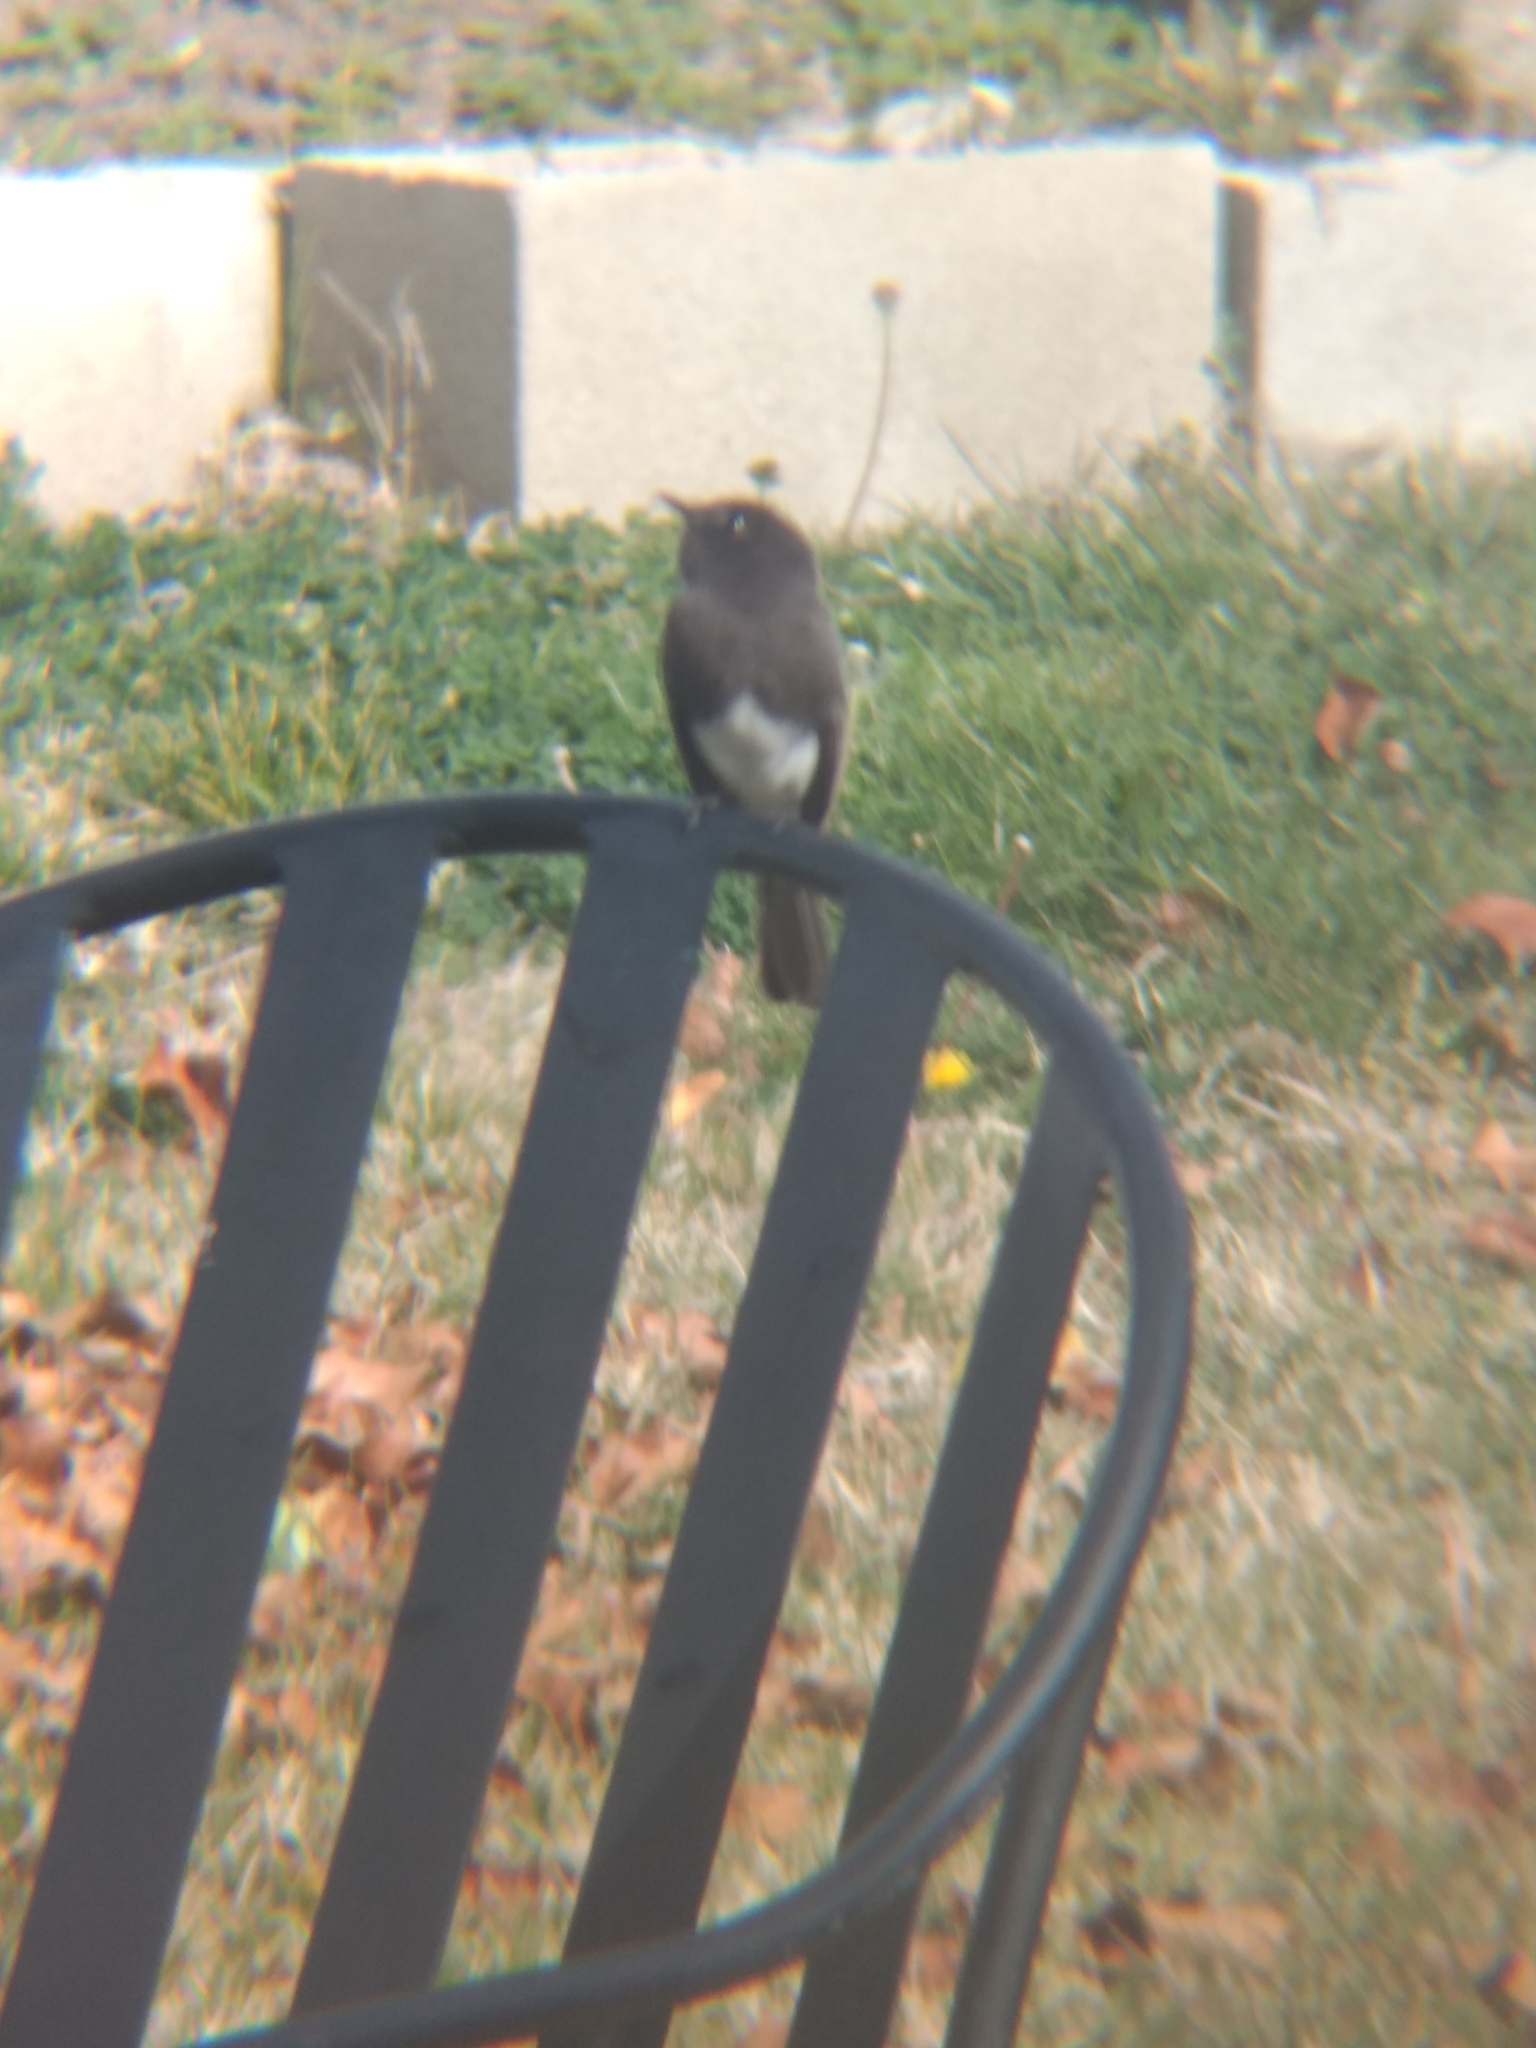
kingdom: Animalia
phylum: Chordata
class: Aves
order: Passeriformes
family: Tyrannidae
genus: Sayornis
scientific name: Sayornis nigricans
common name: Black phoebe
